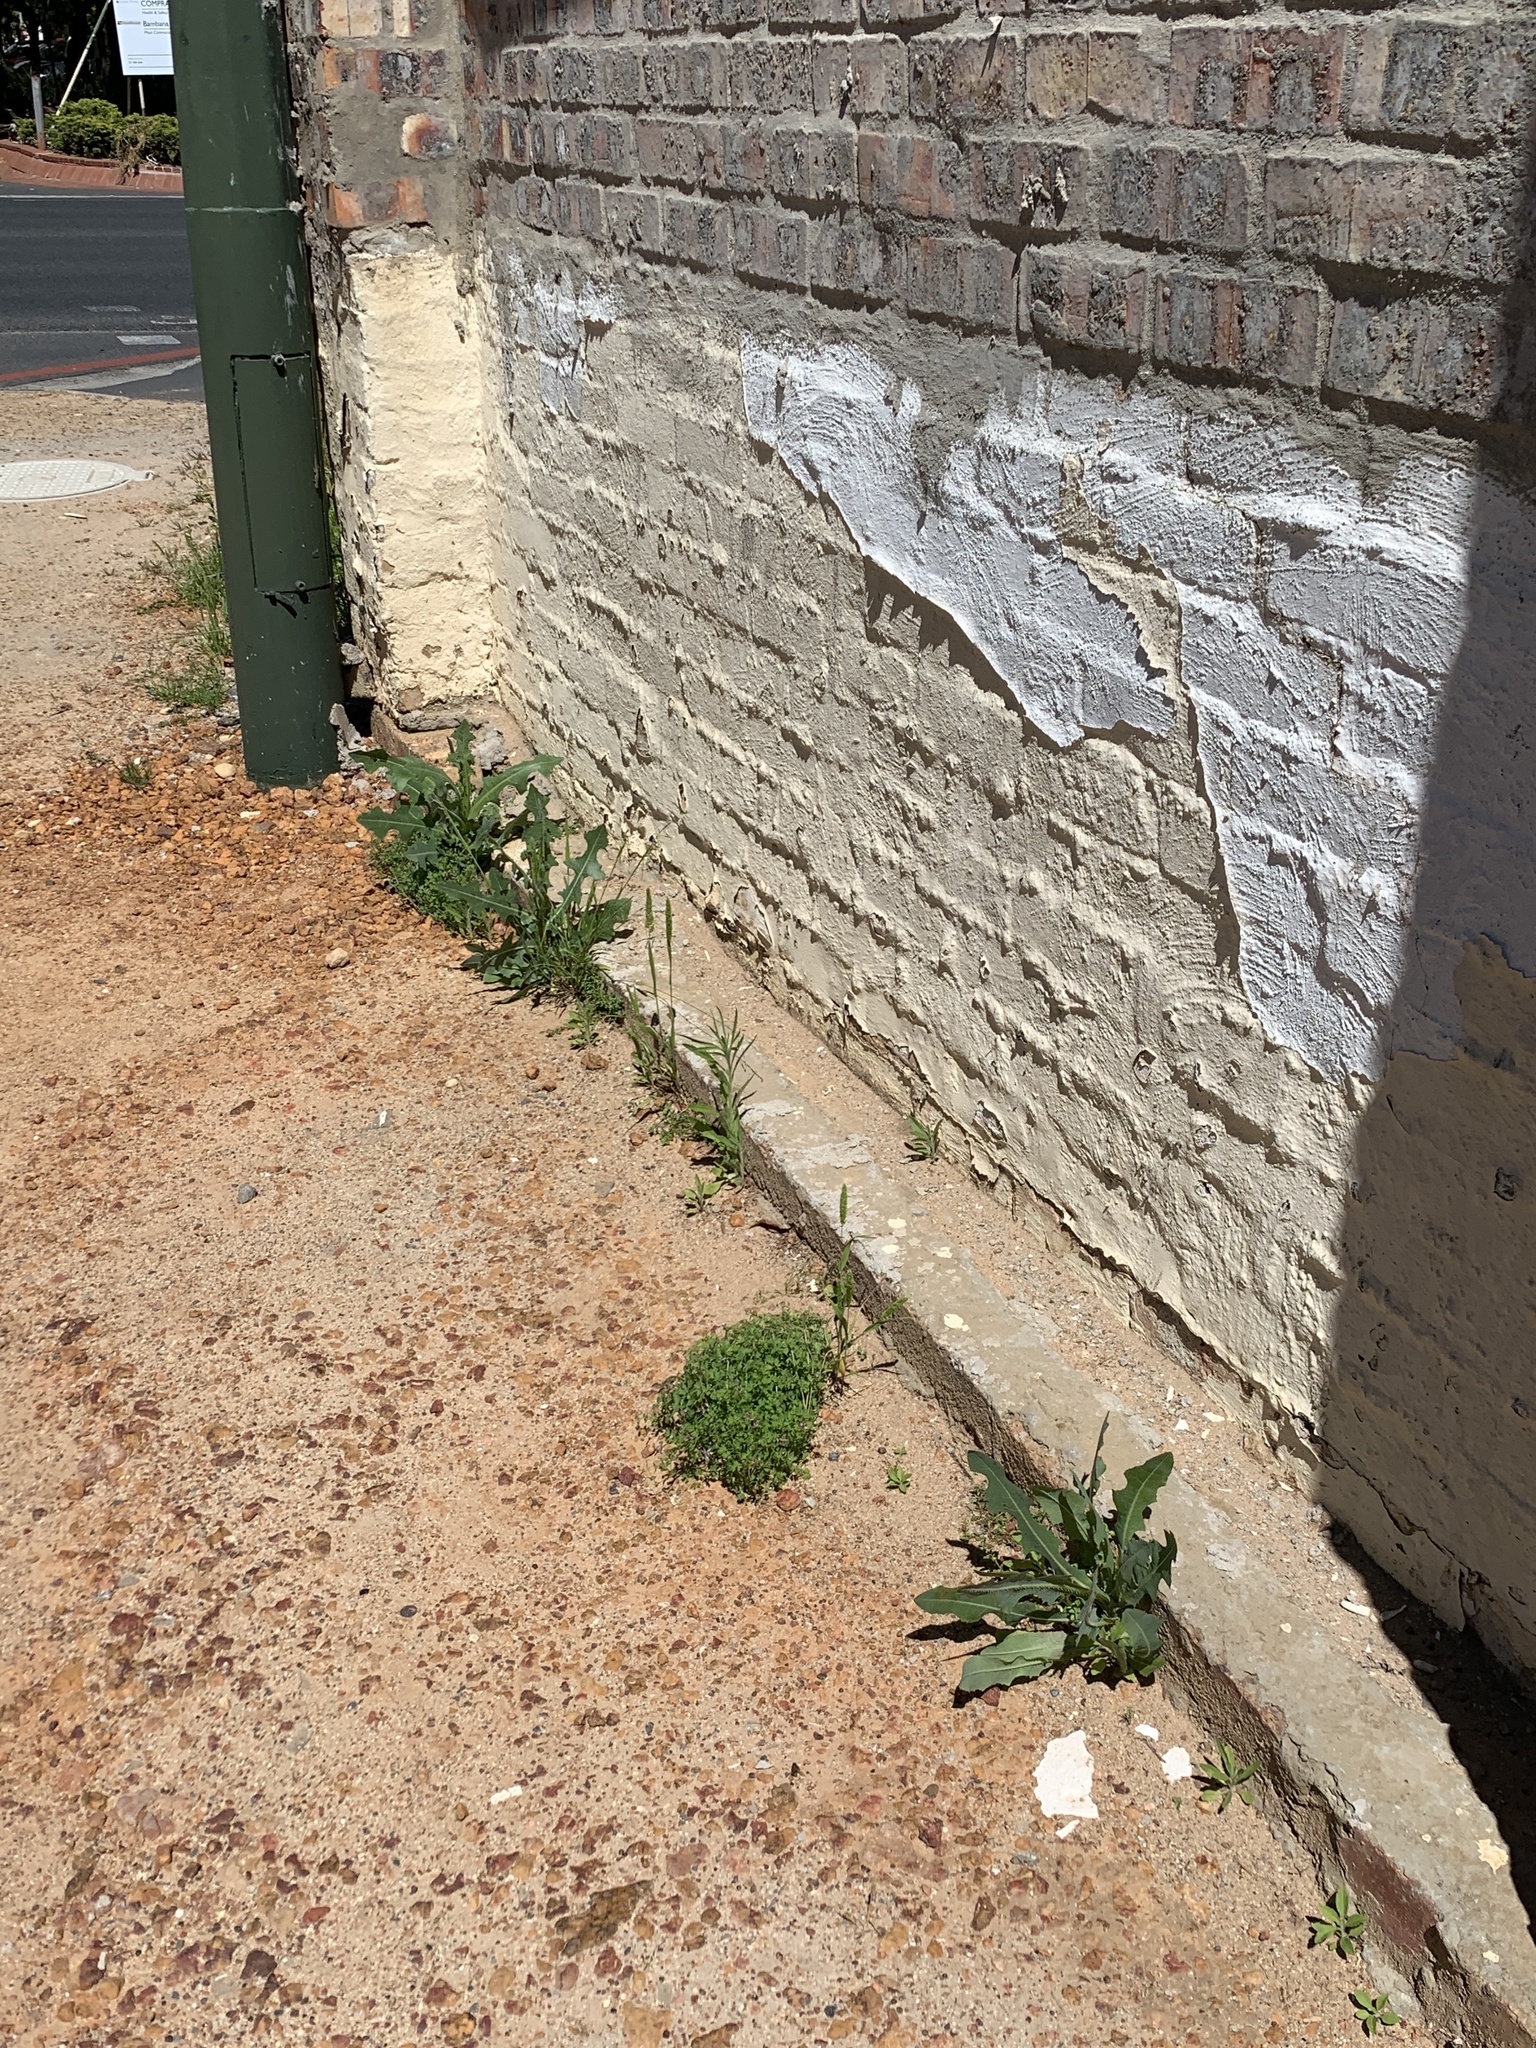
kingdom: Plantae
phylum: Tracheophyta
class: Magnoliopsida
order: Asterales
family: Asteraceae
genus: Lactuca
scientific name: Lactuca serriola
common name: Prickly lettuce
